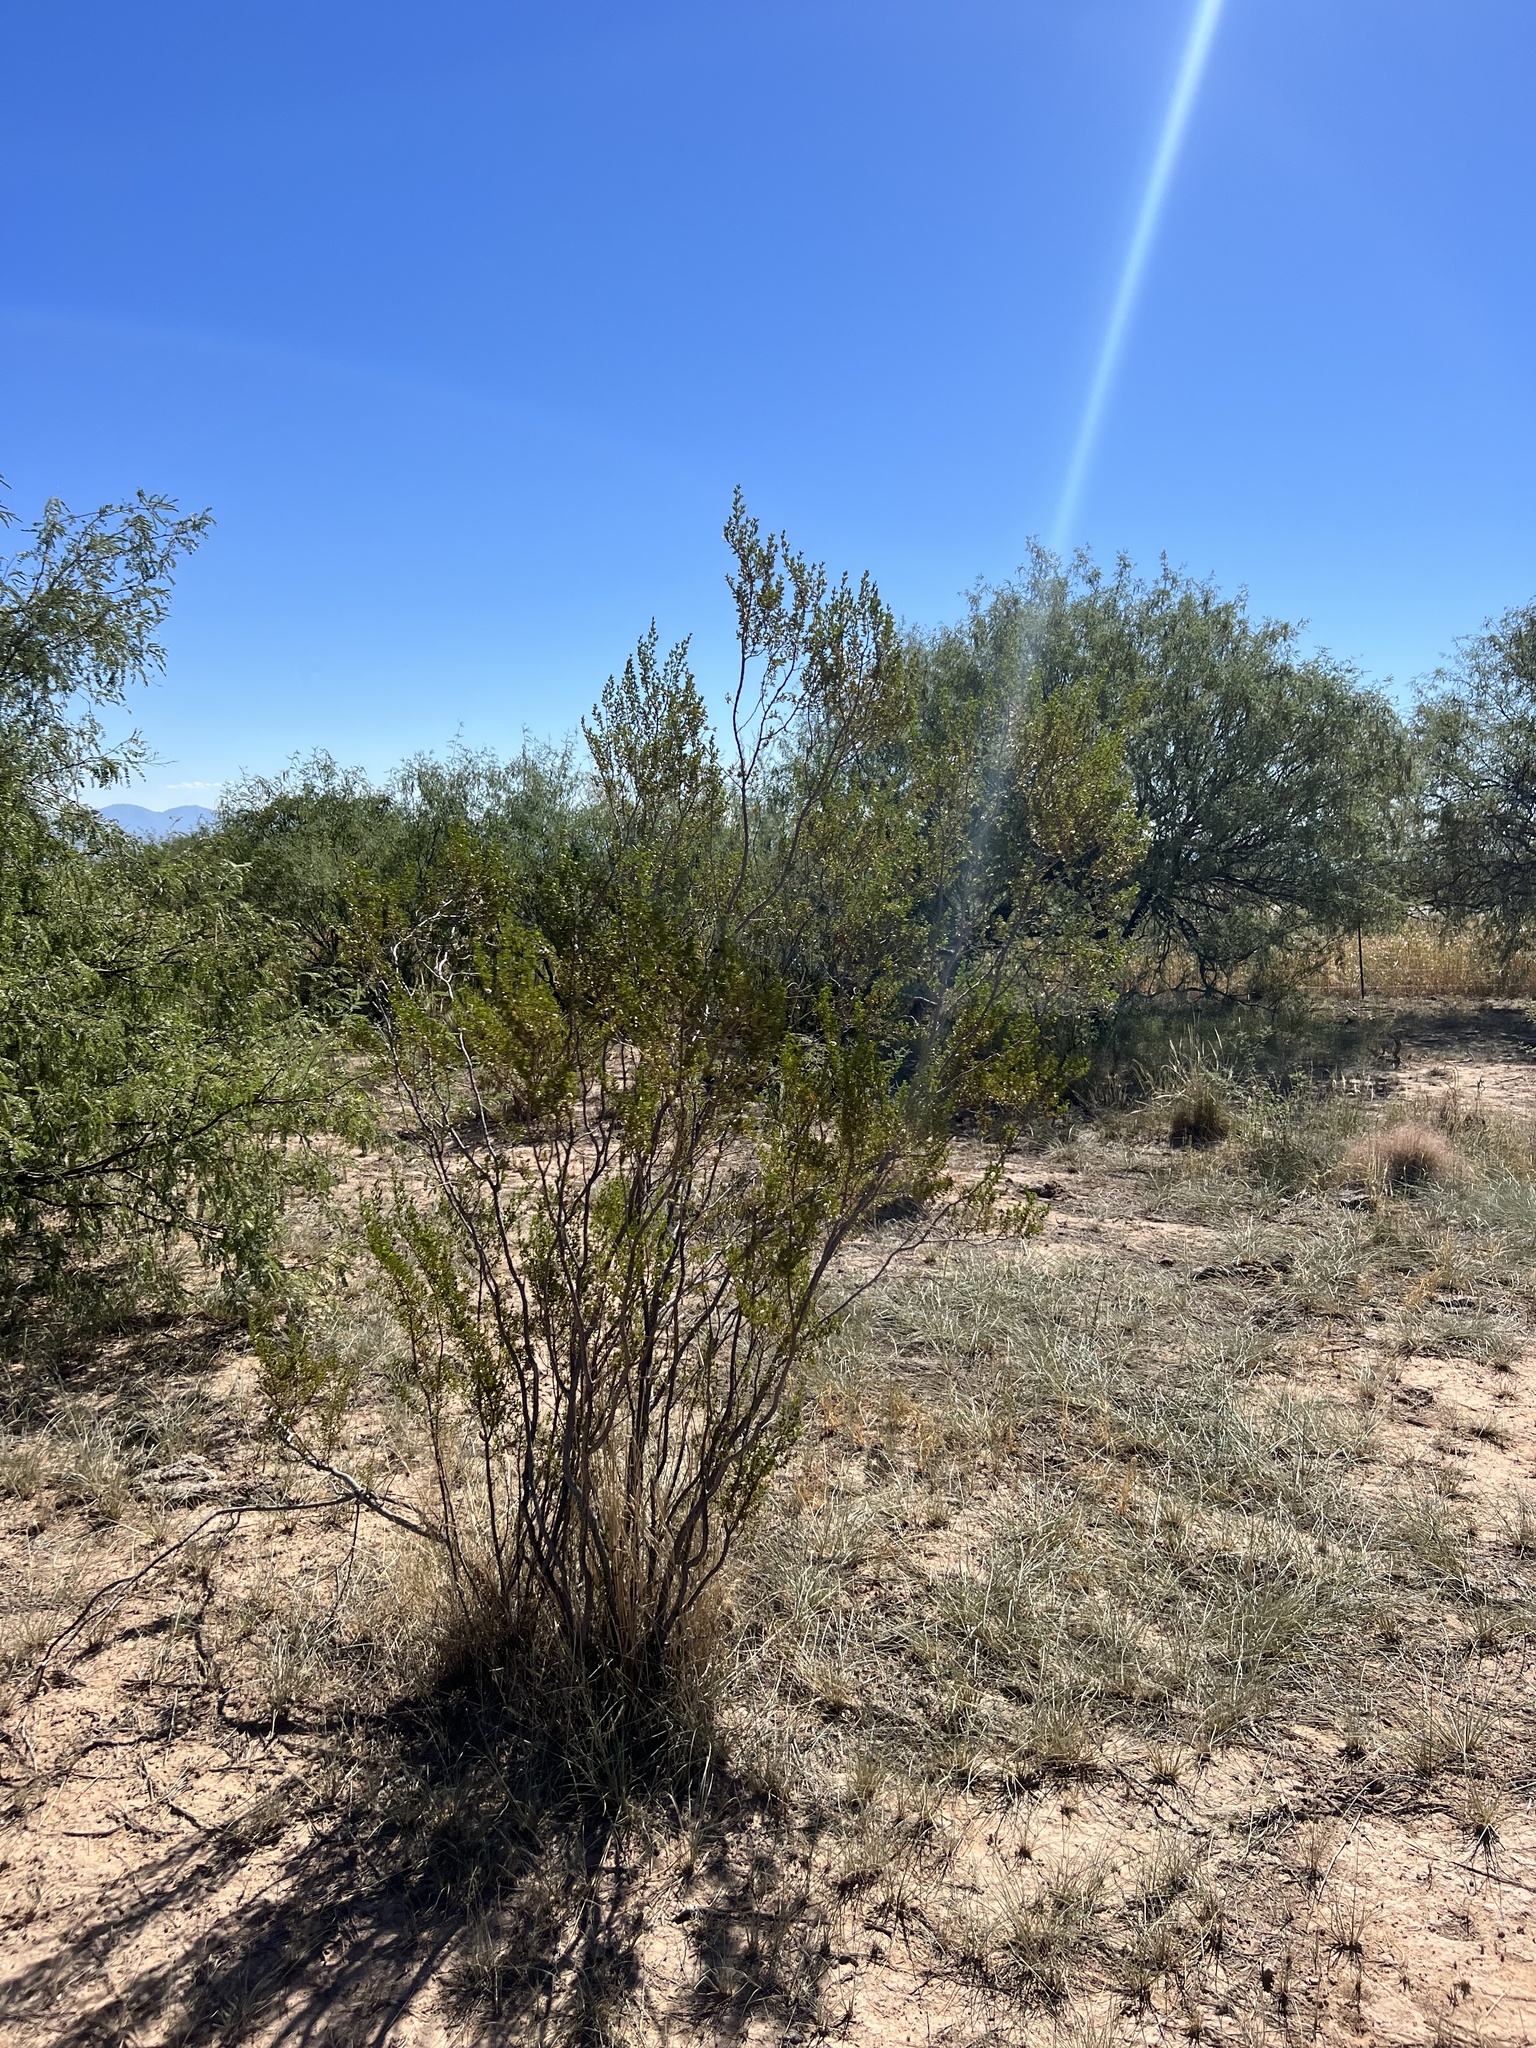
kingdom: Plantae
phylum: Tracheophyta
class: Magnoliopsida
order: Zygophyllales
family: Zygophyllaceae
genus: Larrea
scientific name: Larrea tridentata
